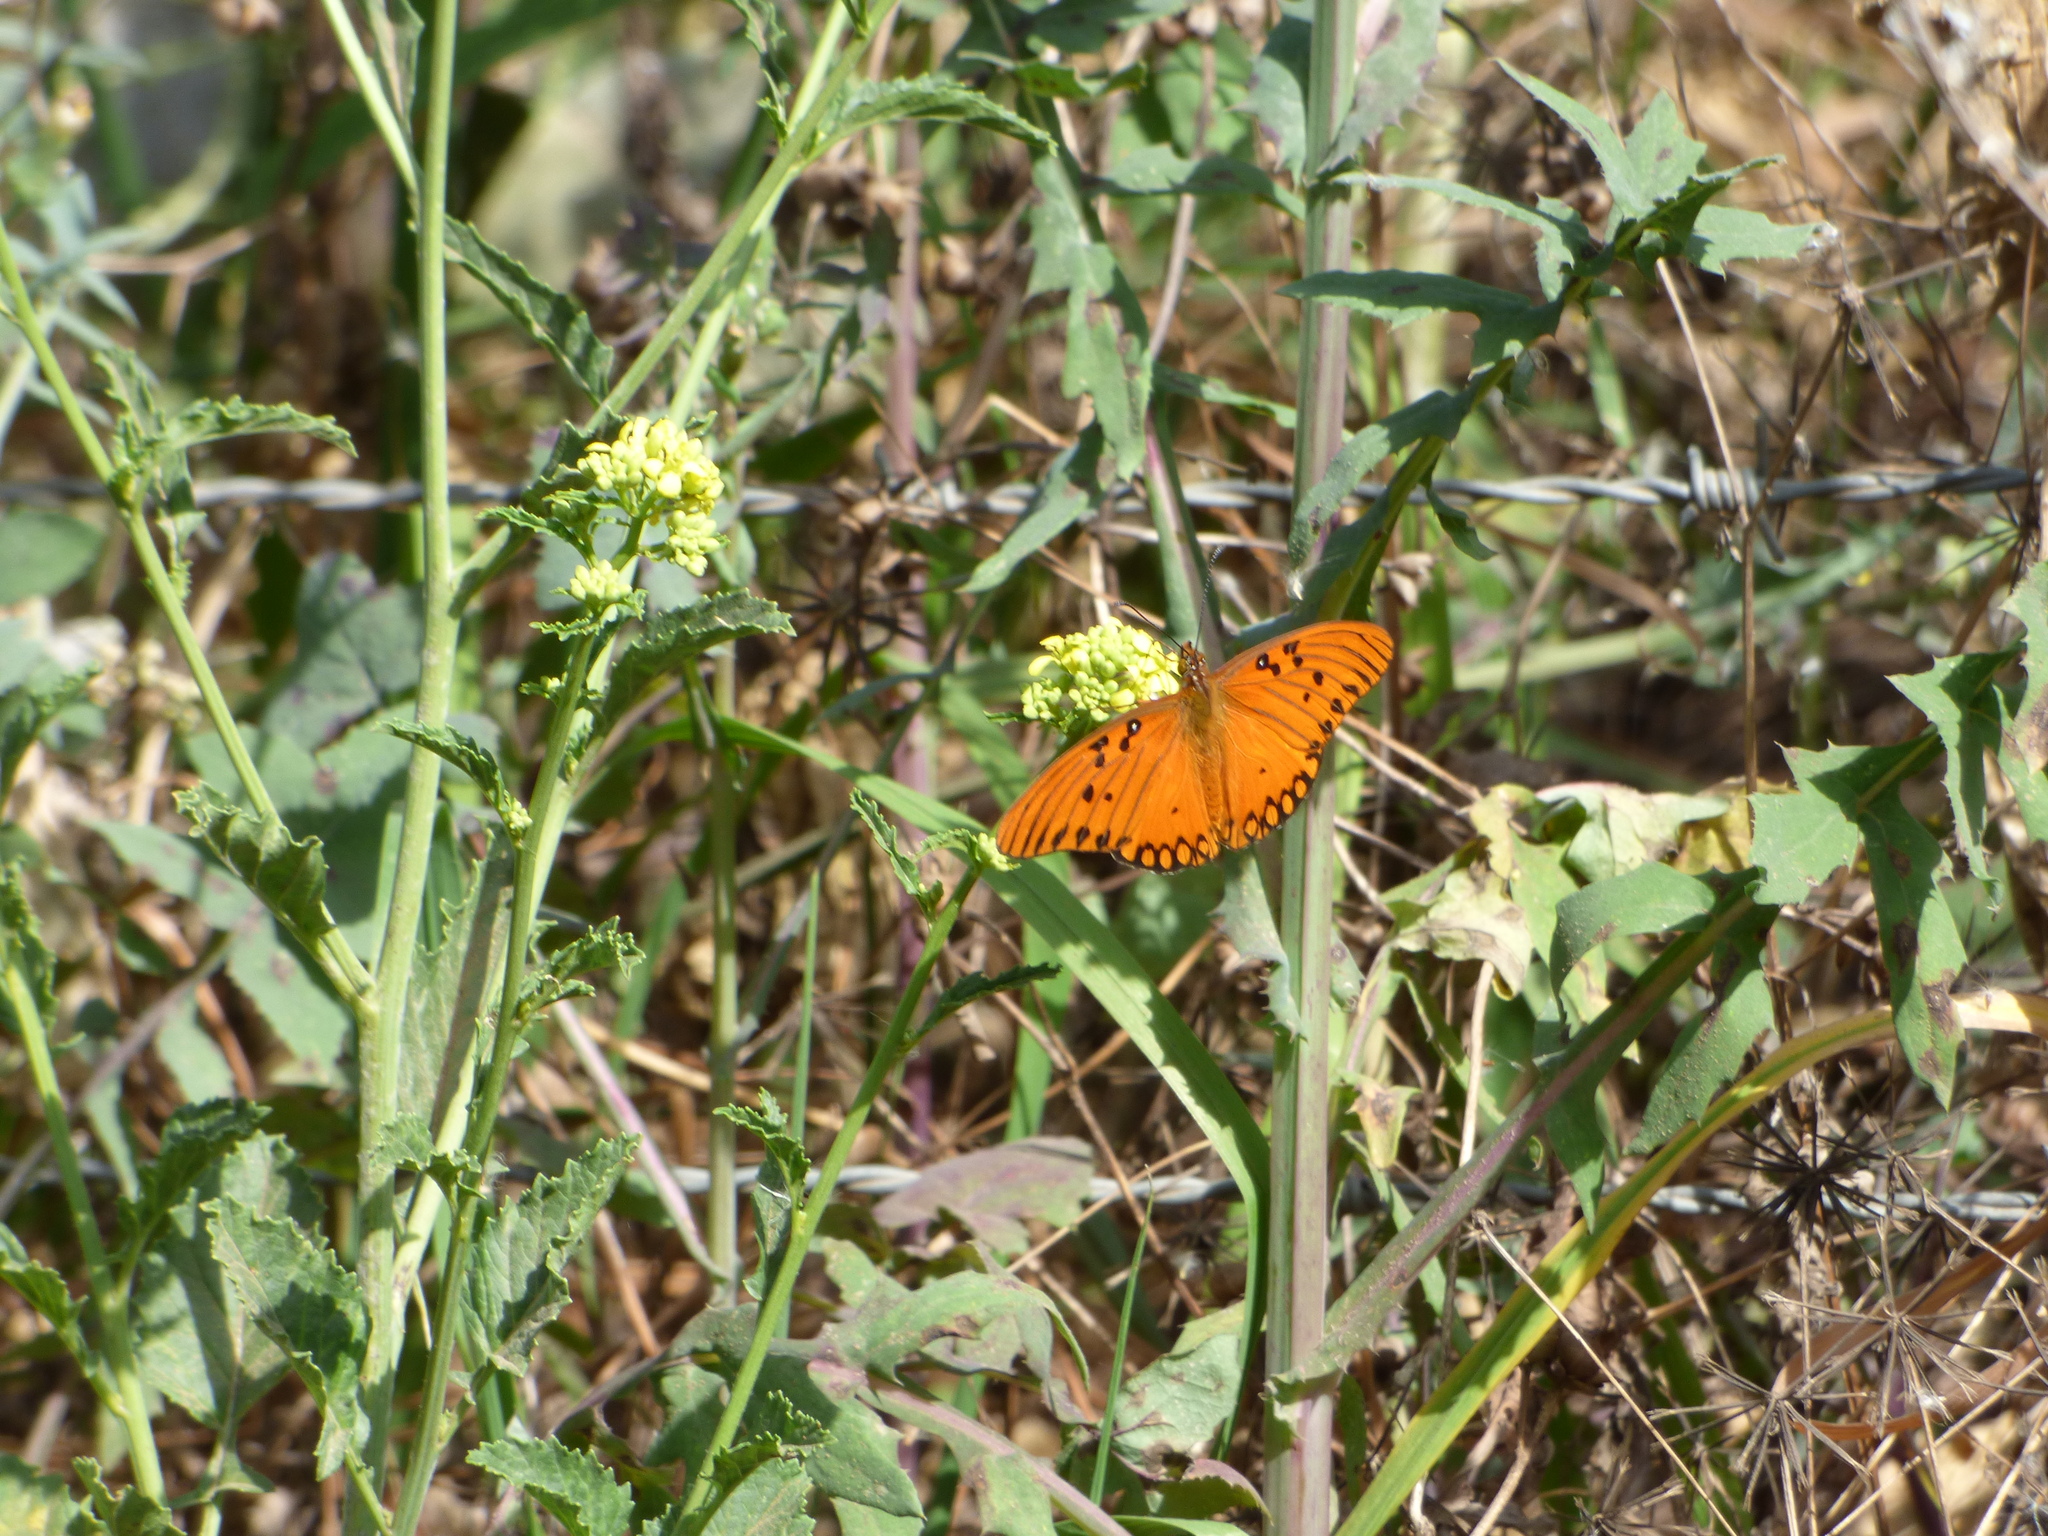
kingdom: Animalia
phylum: Arthropoda
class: Insecta
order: Lepidoptera
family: Nymphalidae
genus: Dione
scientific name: Dione vanillae
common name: Gulf fritillary
